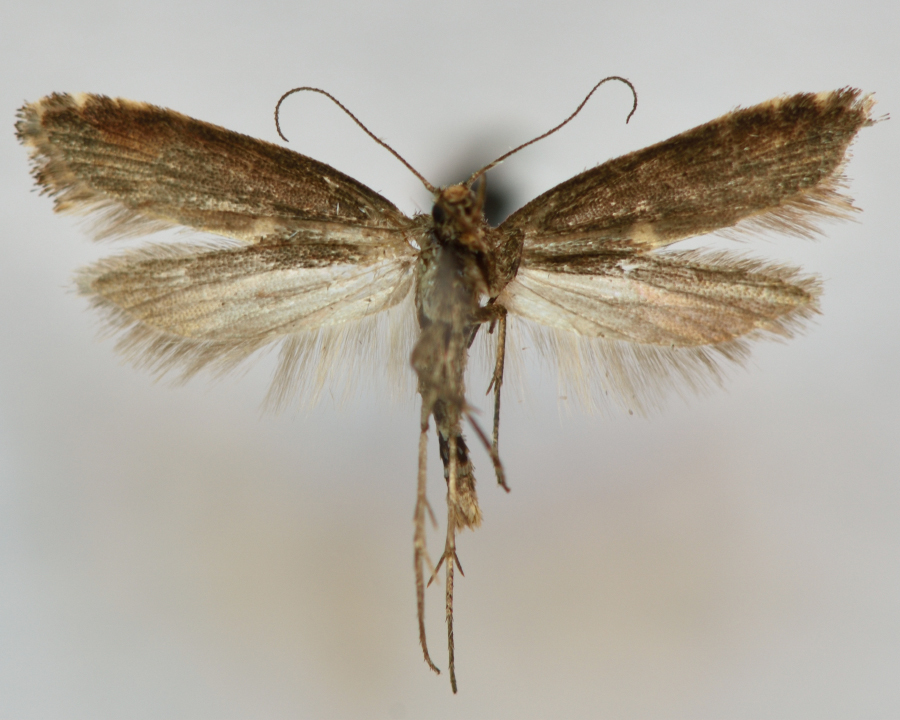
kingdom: Animalia
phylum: Arthropoda
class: Insecta
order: Lepidoptera
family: Glyphipterigidae
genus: Acrolepia
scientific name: Acrolepia assectella
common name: Onion leaf miner
